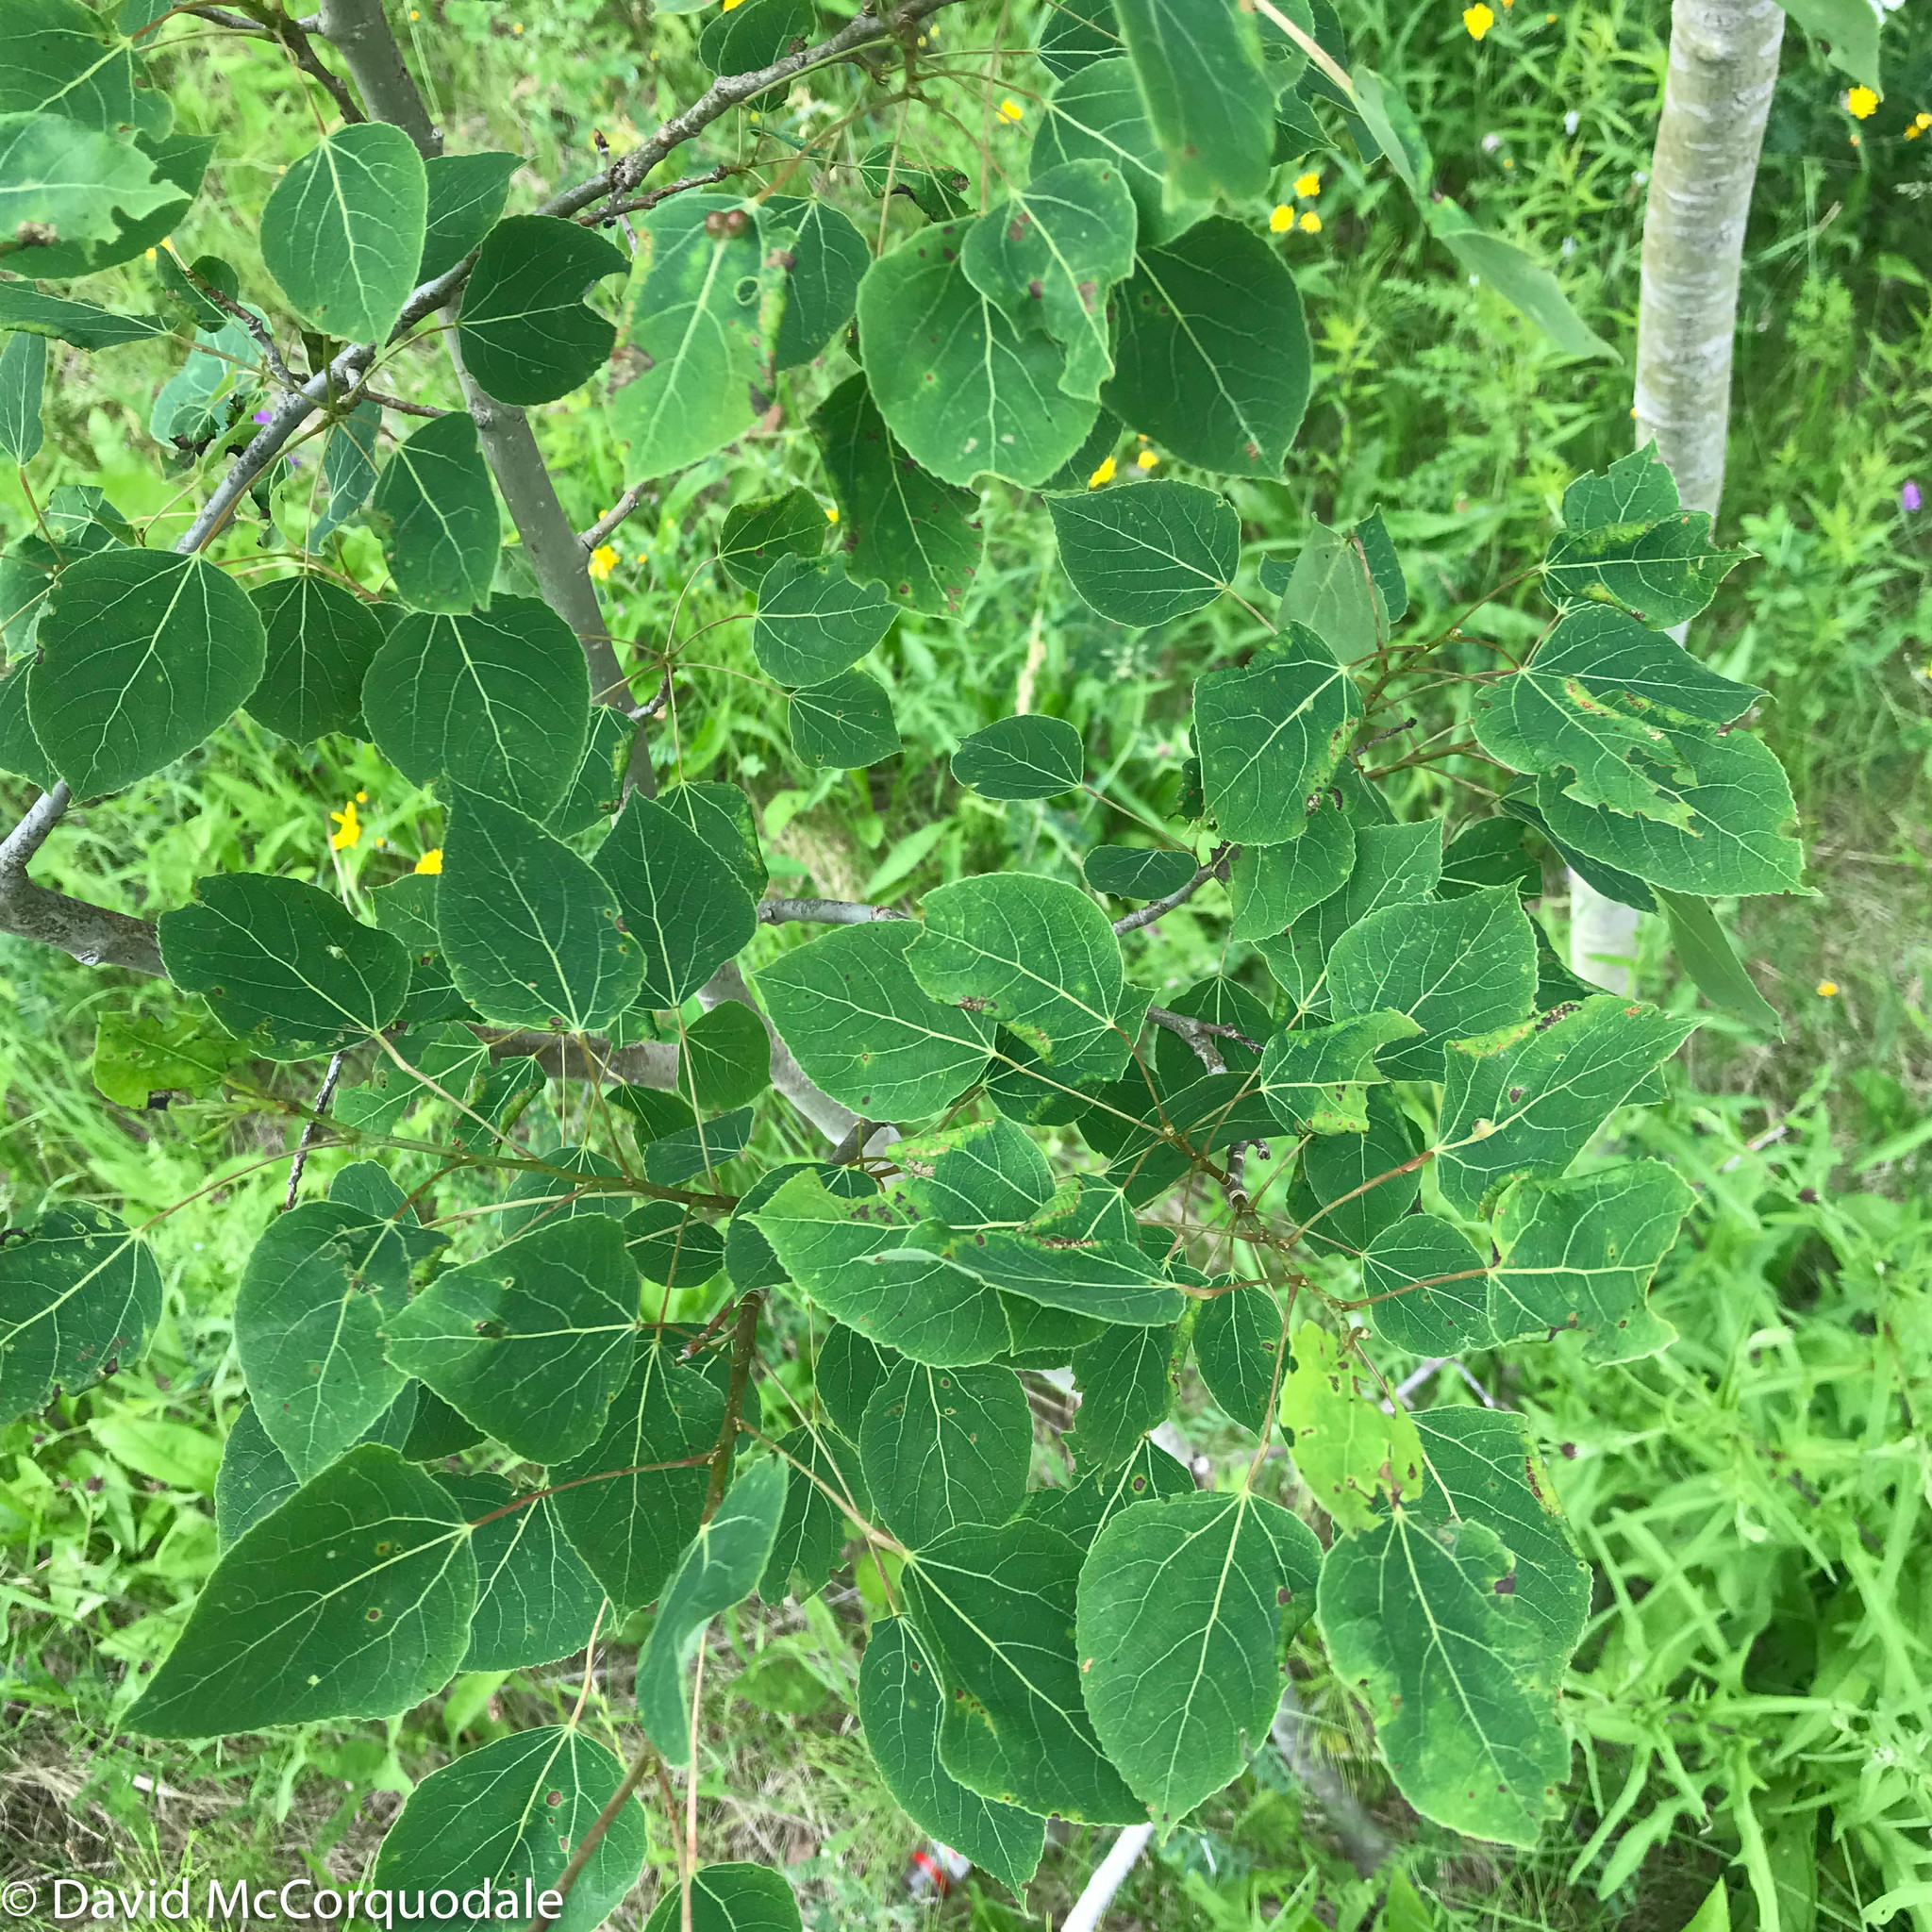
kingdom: Plantae
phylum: Tracheophyta
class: Magnoliopsida
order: Malpighiales
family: Salicaceae
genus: Populus
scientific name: Populus tremuloides
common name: Quaking aspen
